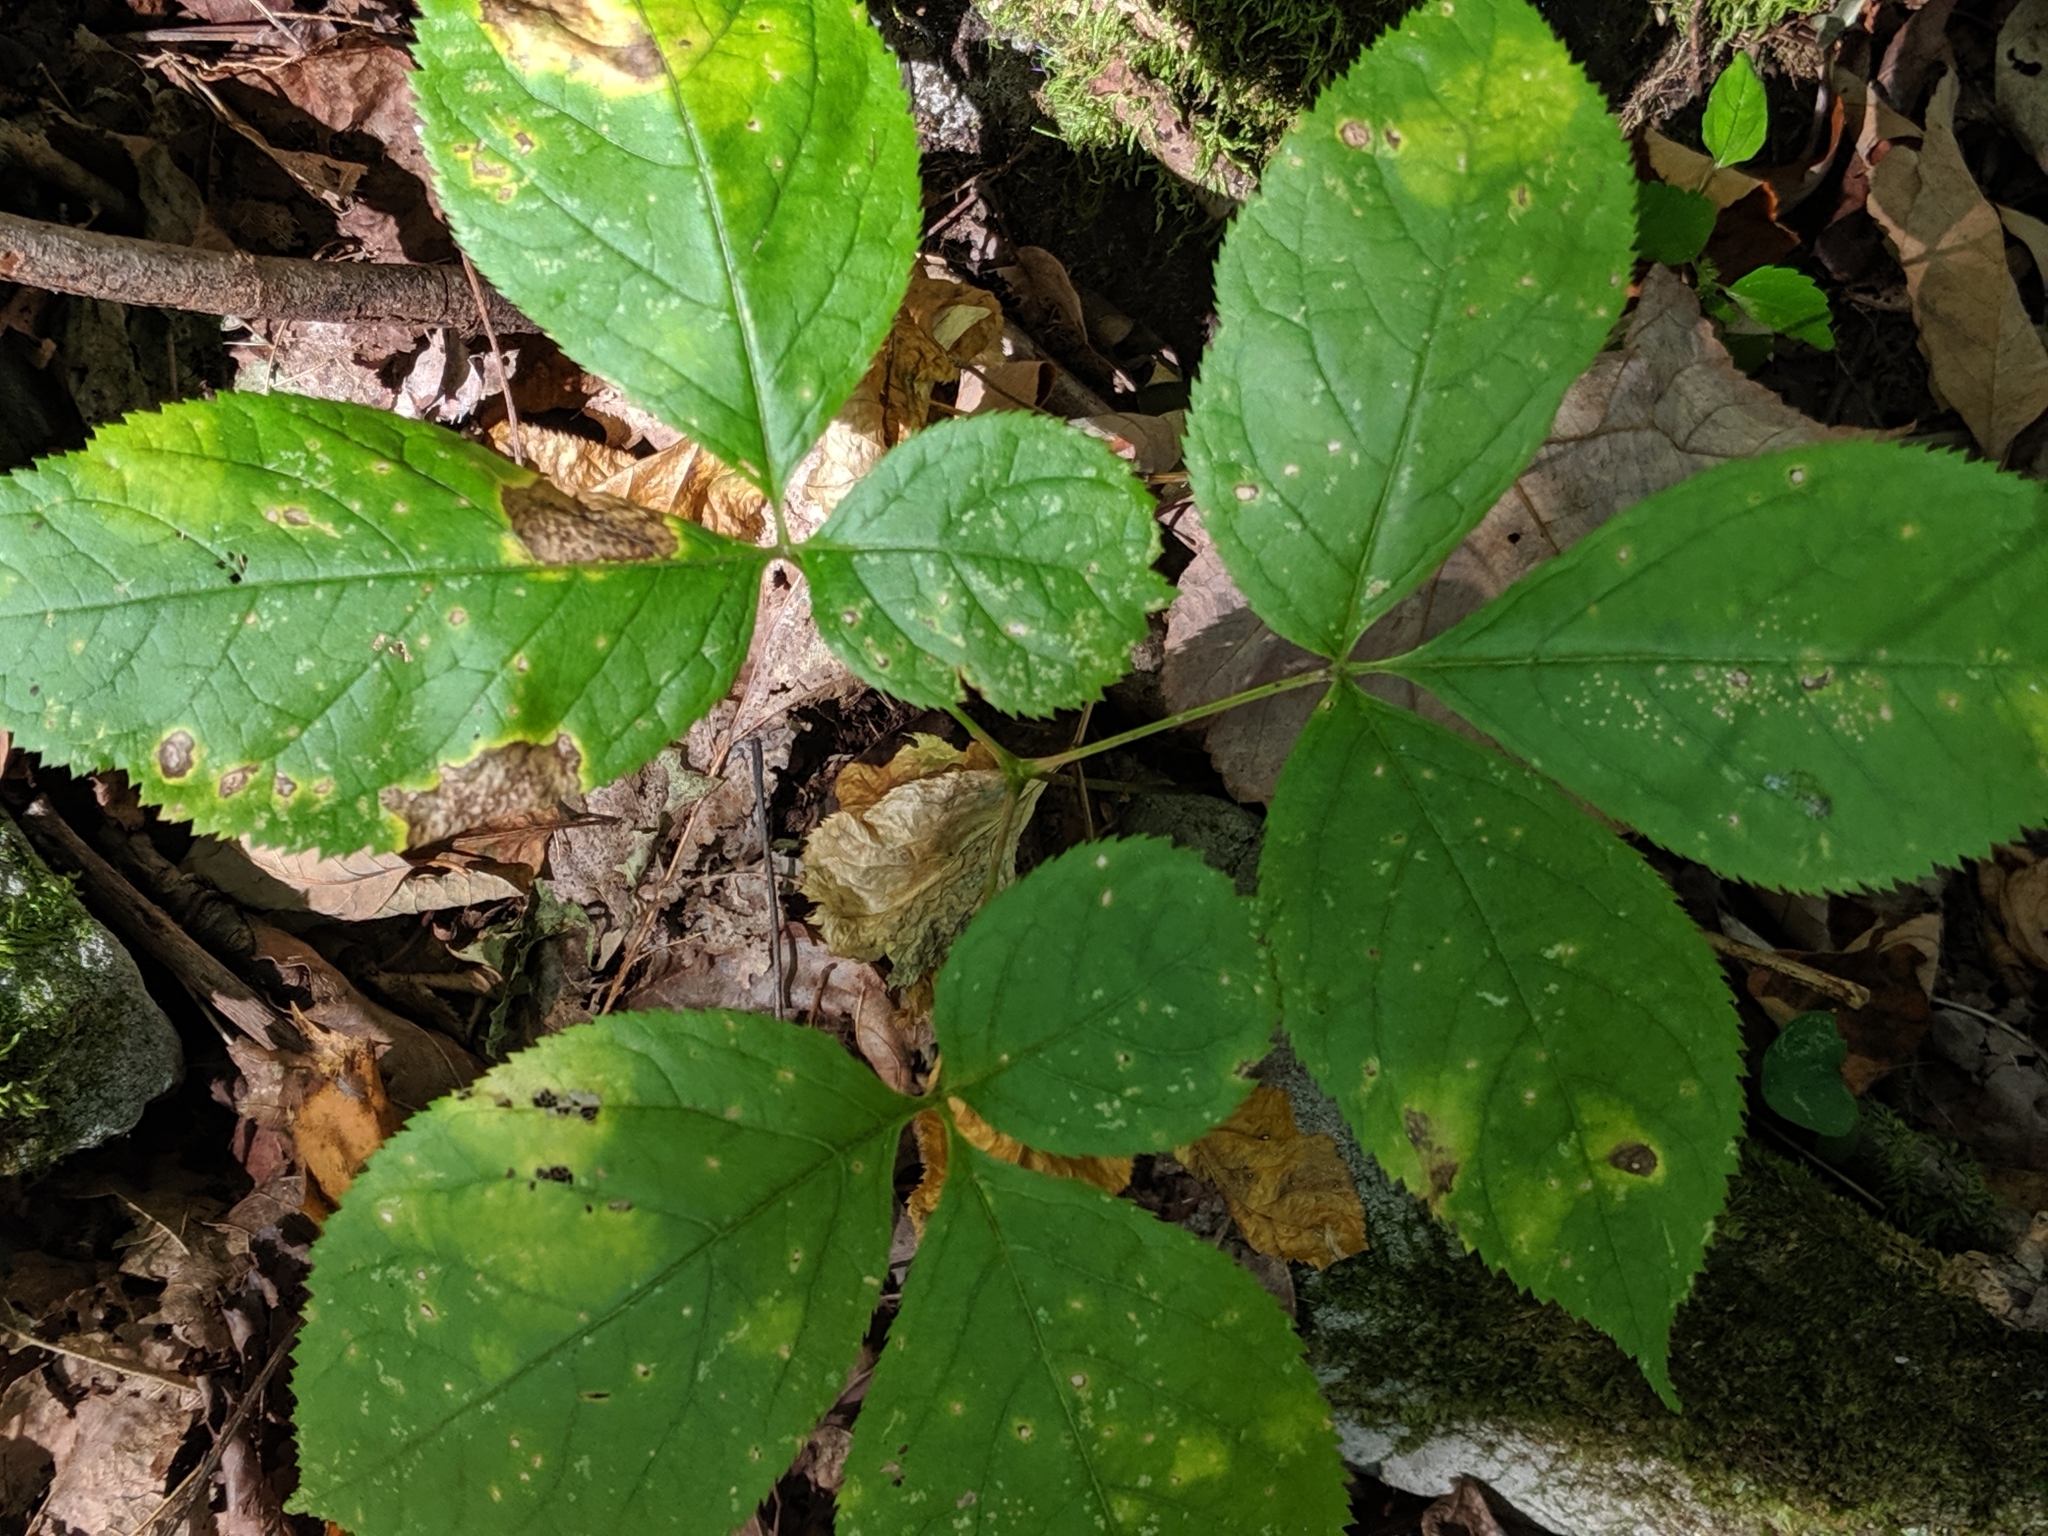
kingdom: Plantae
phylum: Tracheophyta
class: Magnoliopsida
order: Apiales
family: Araliaceae
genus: Aralia
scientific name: Aralia nudicaulis
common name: Wild sarsaparilla
